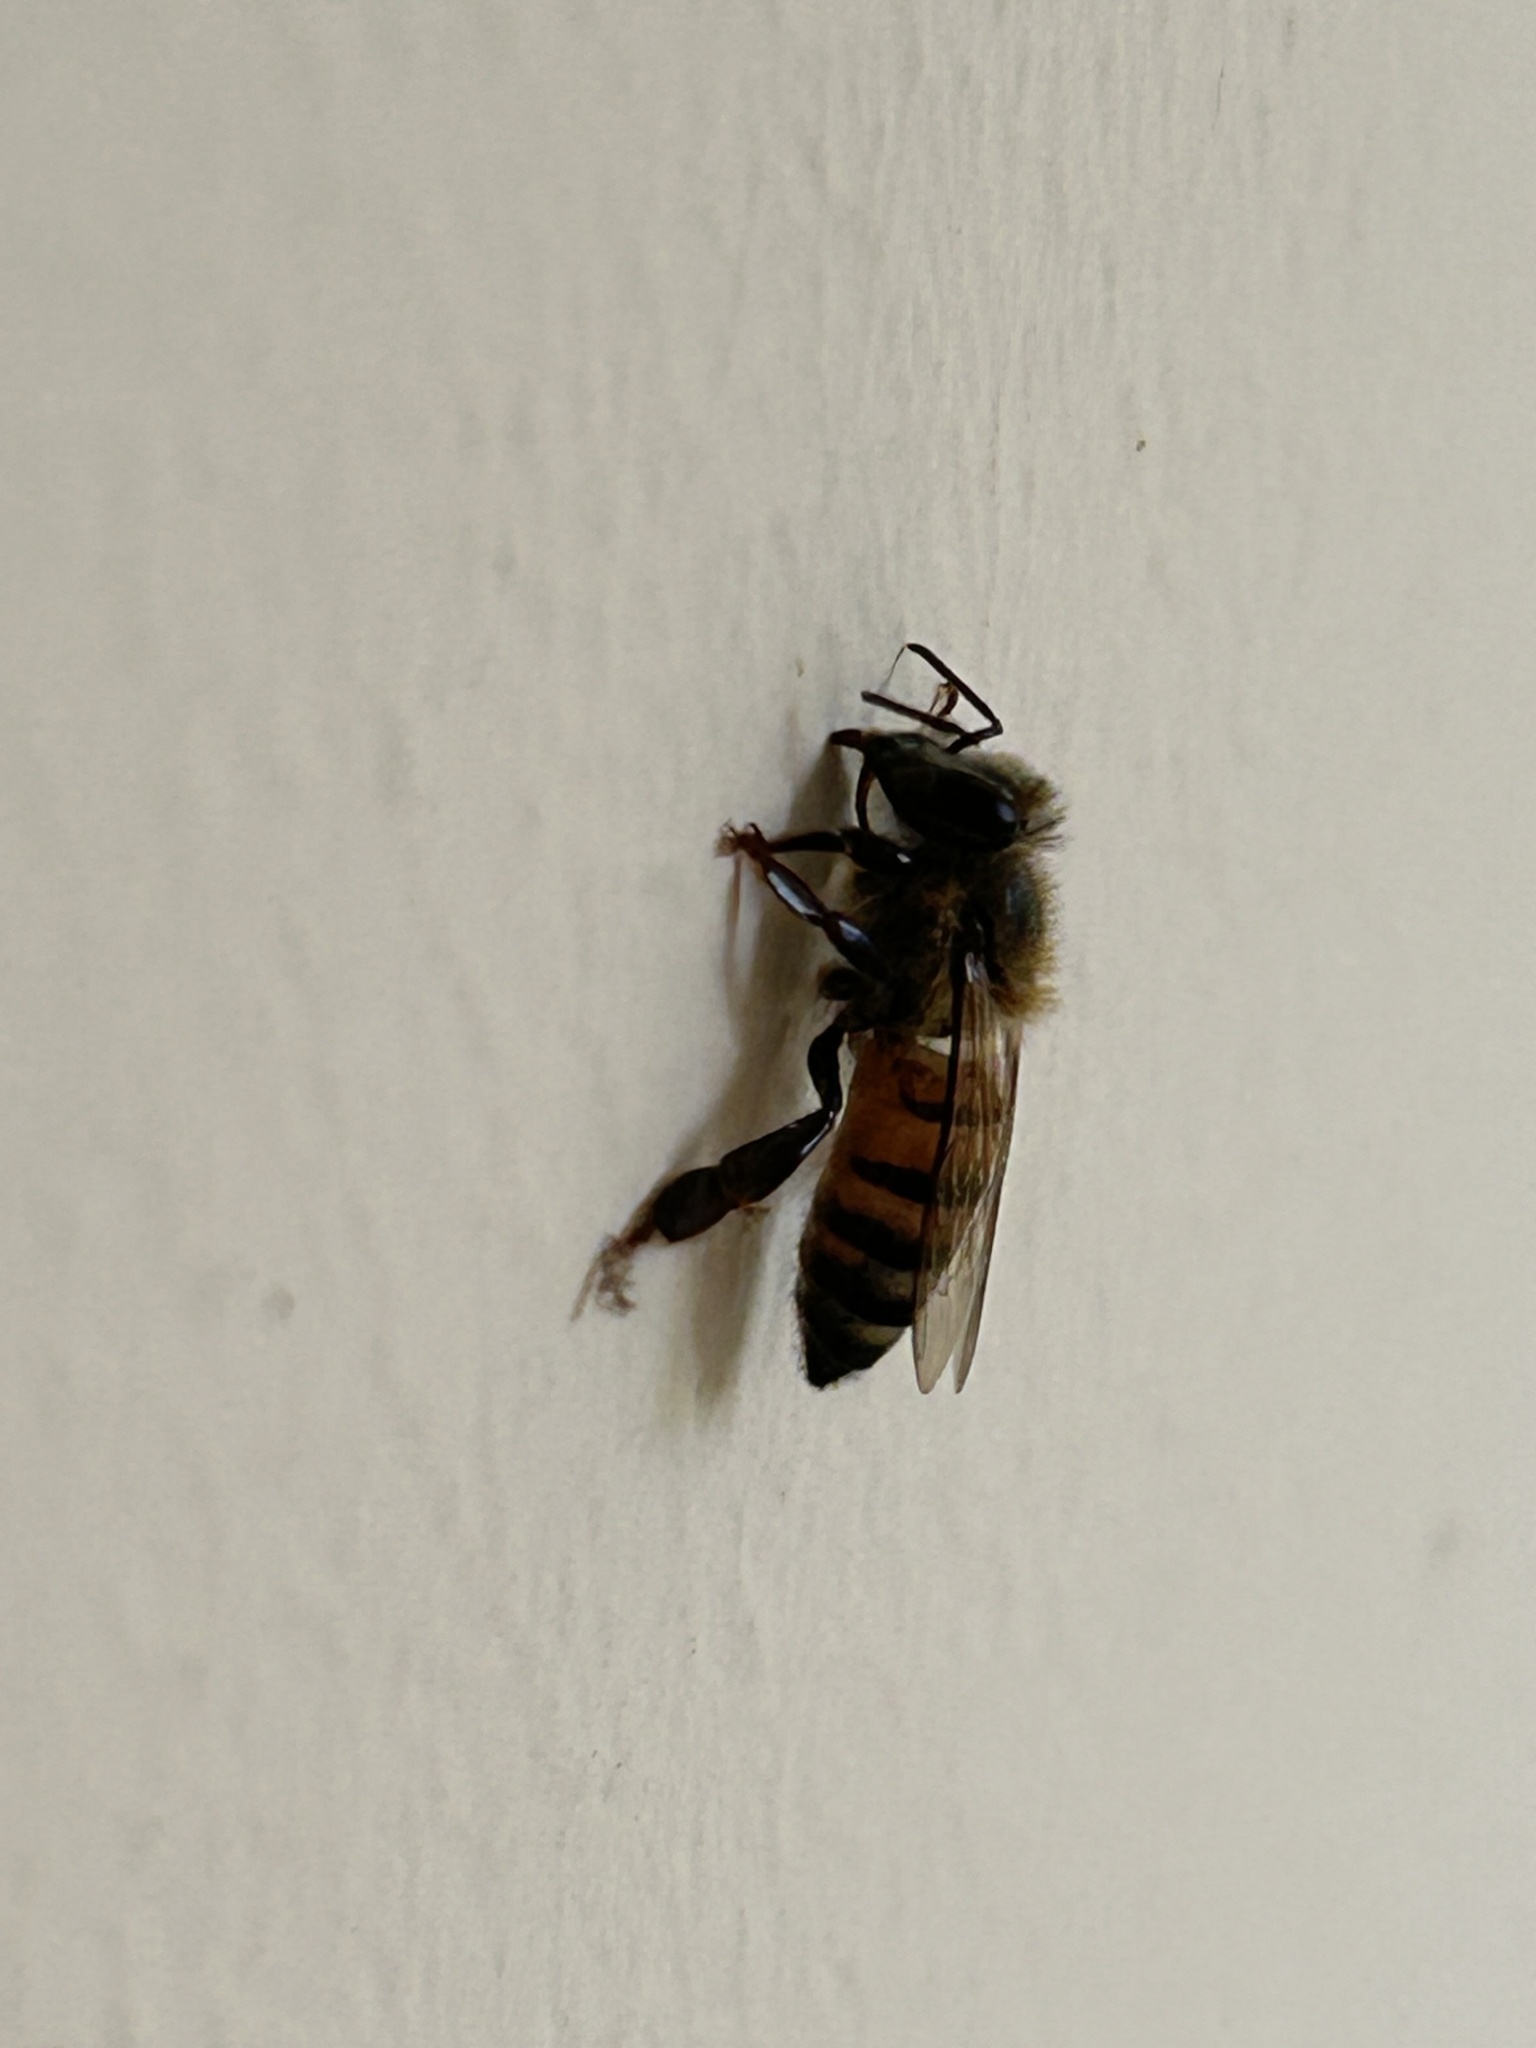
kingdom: Animalia
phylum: Arthropoda
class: Insecta
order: Hymenoptera
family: Apidae
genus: Apis
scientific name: Apis mellifera
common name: Honey bee
